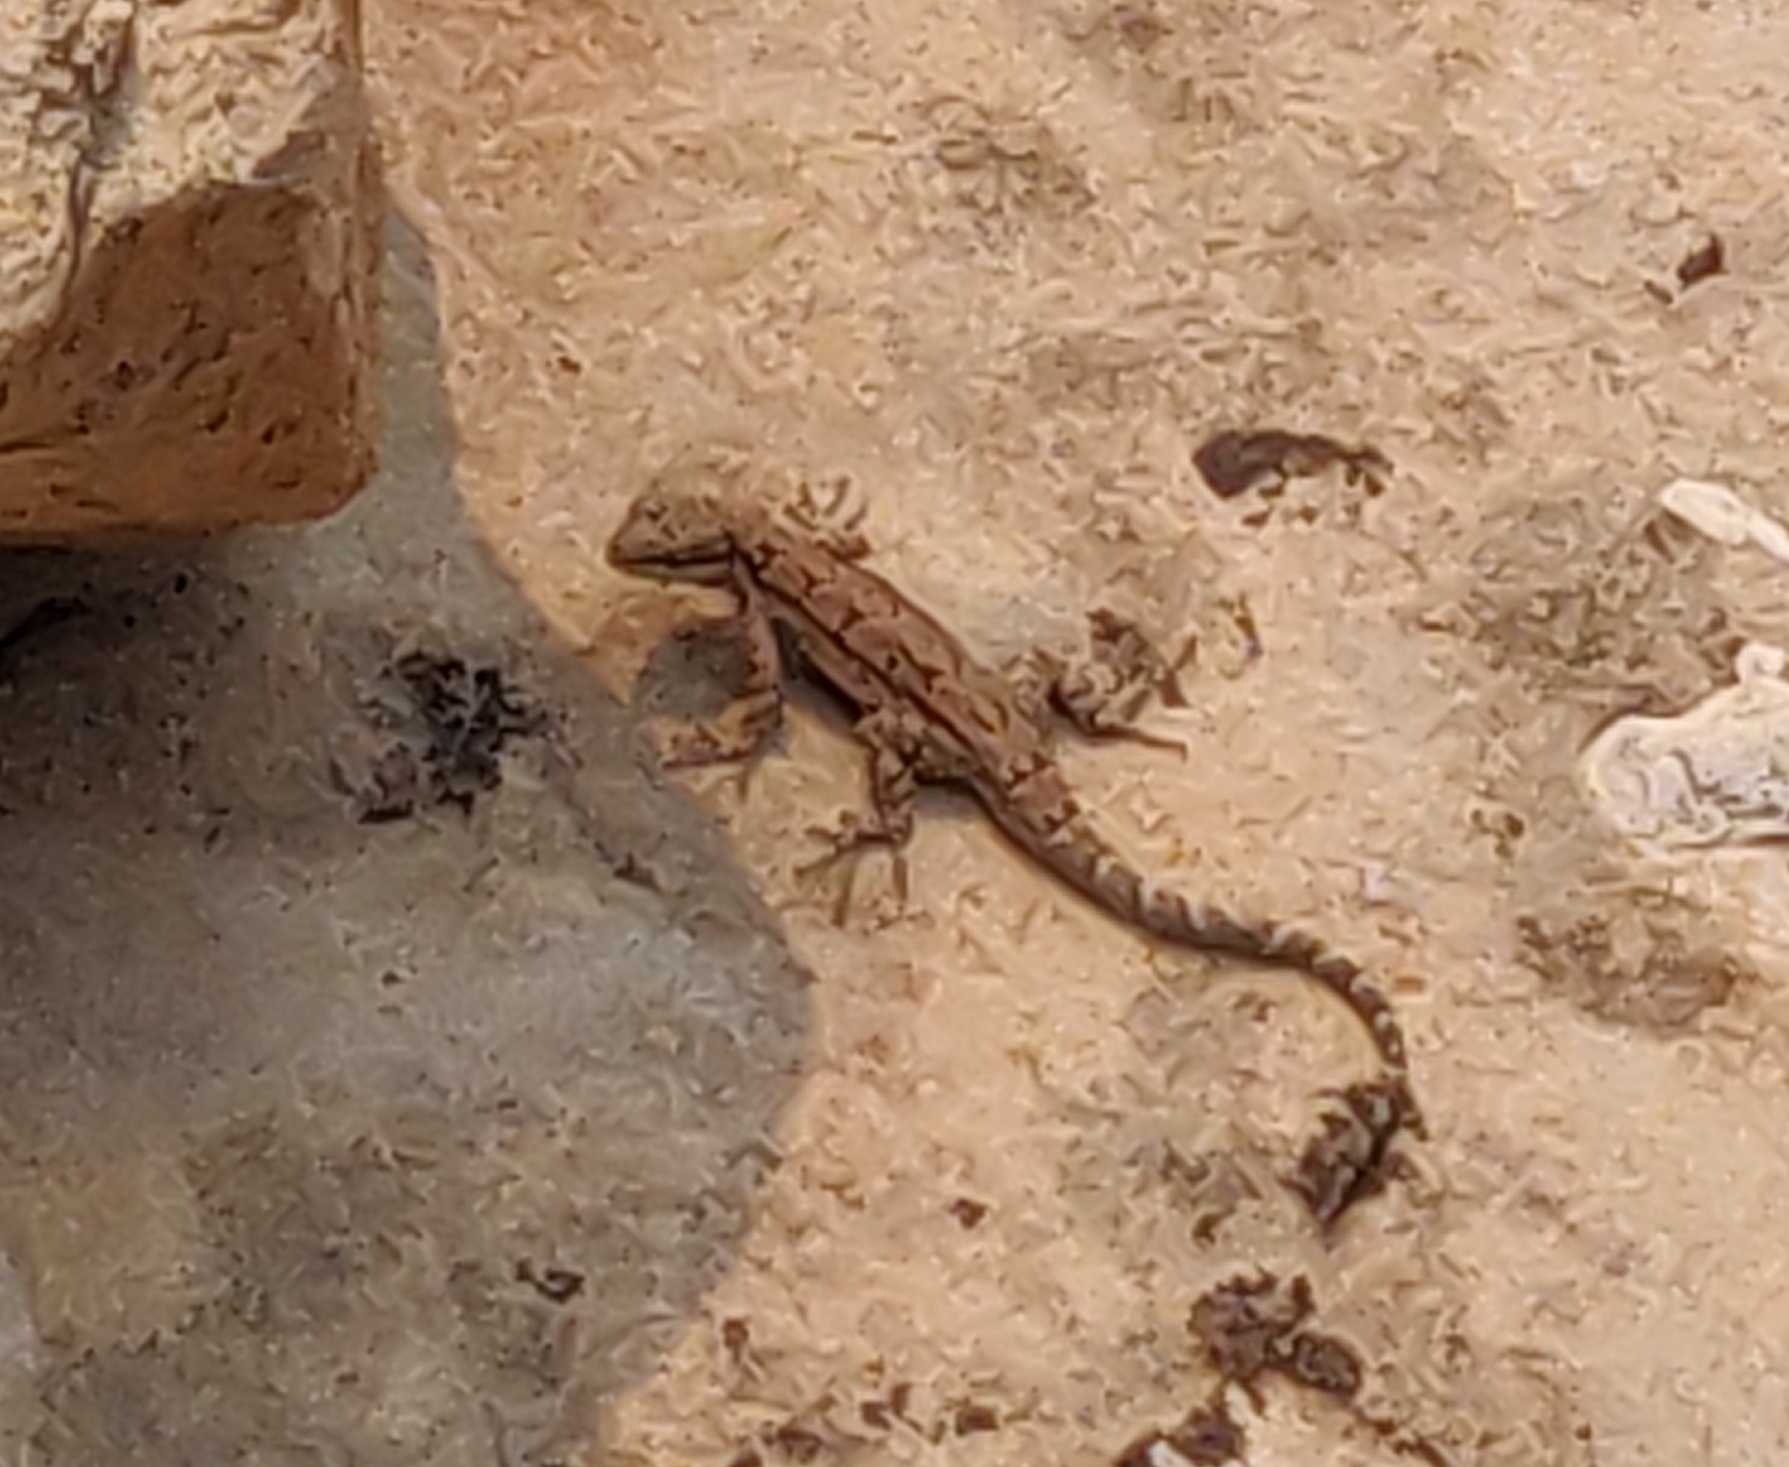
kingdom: Animalia
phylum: Chordata
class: Squamata
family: Phrynosomatidae
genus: Urosaurus
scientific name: Urosaurus ornatus
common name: Ornate tree lizard
